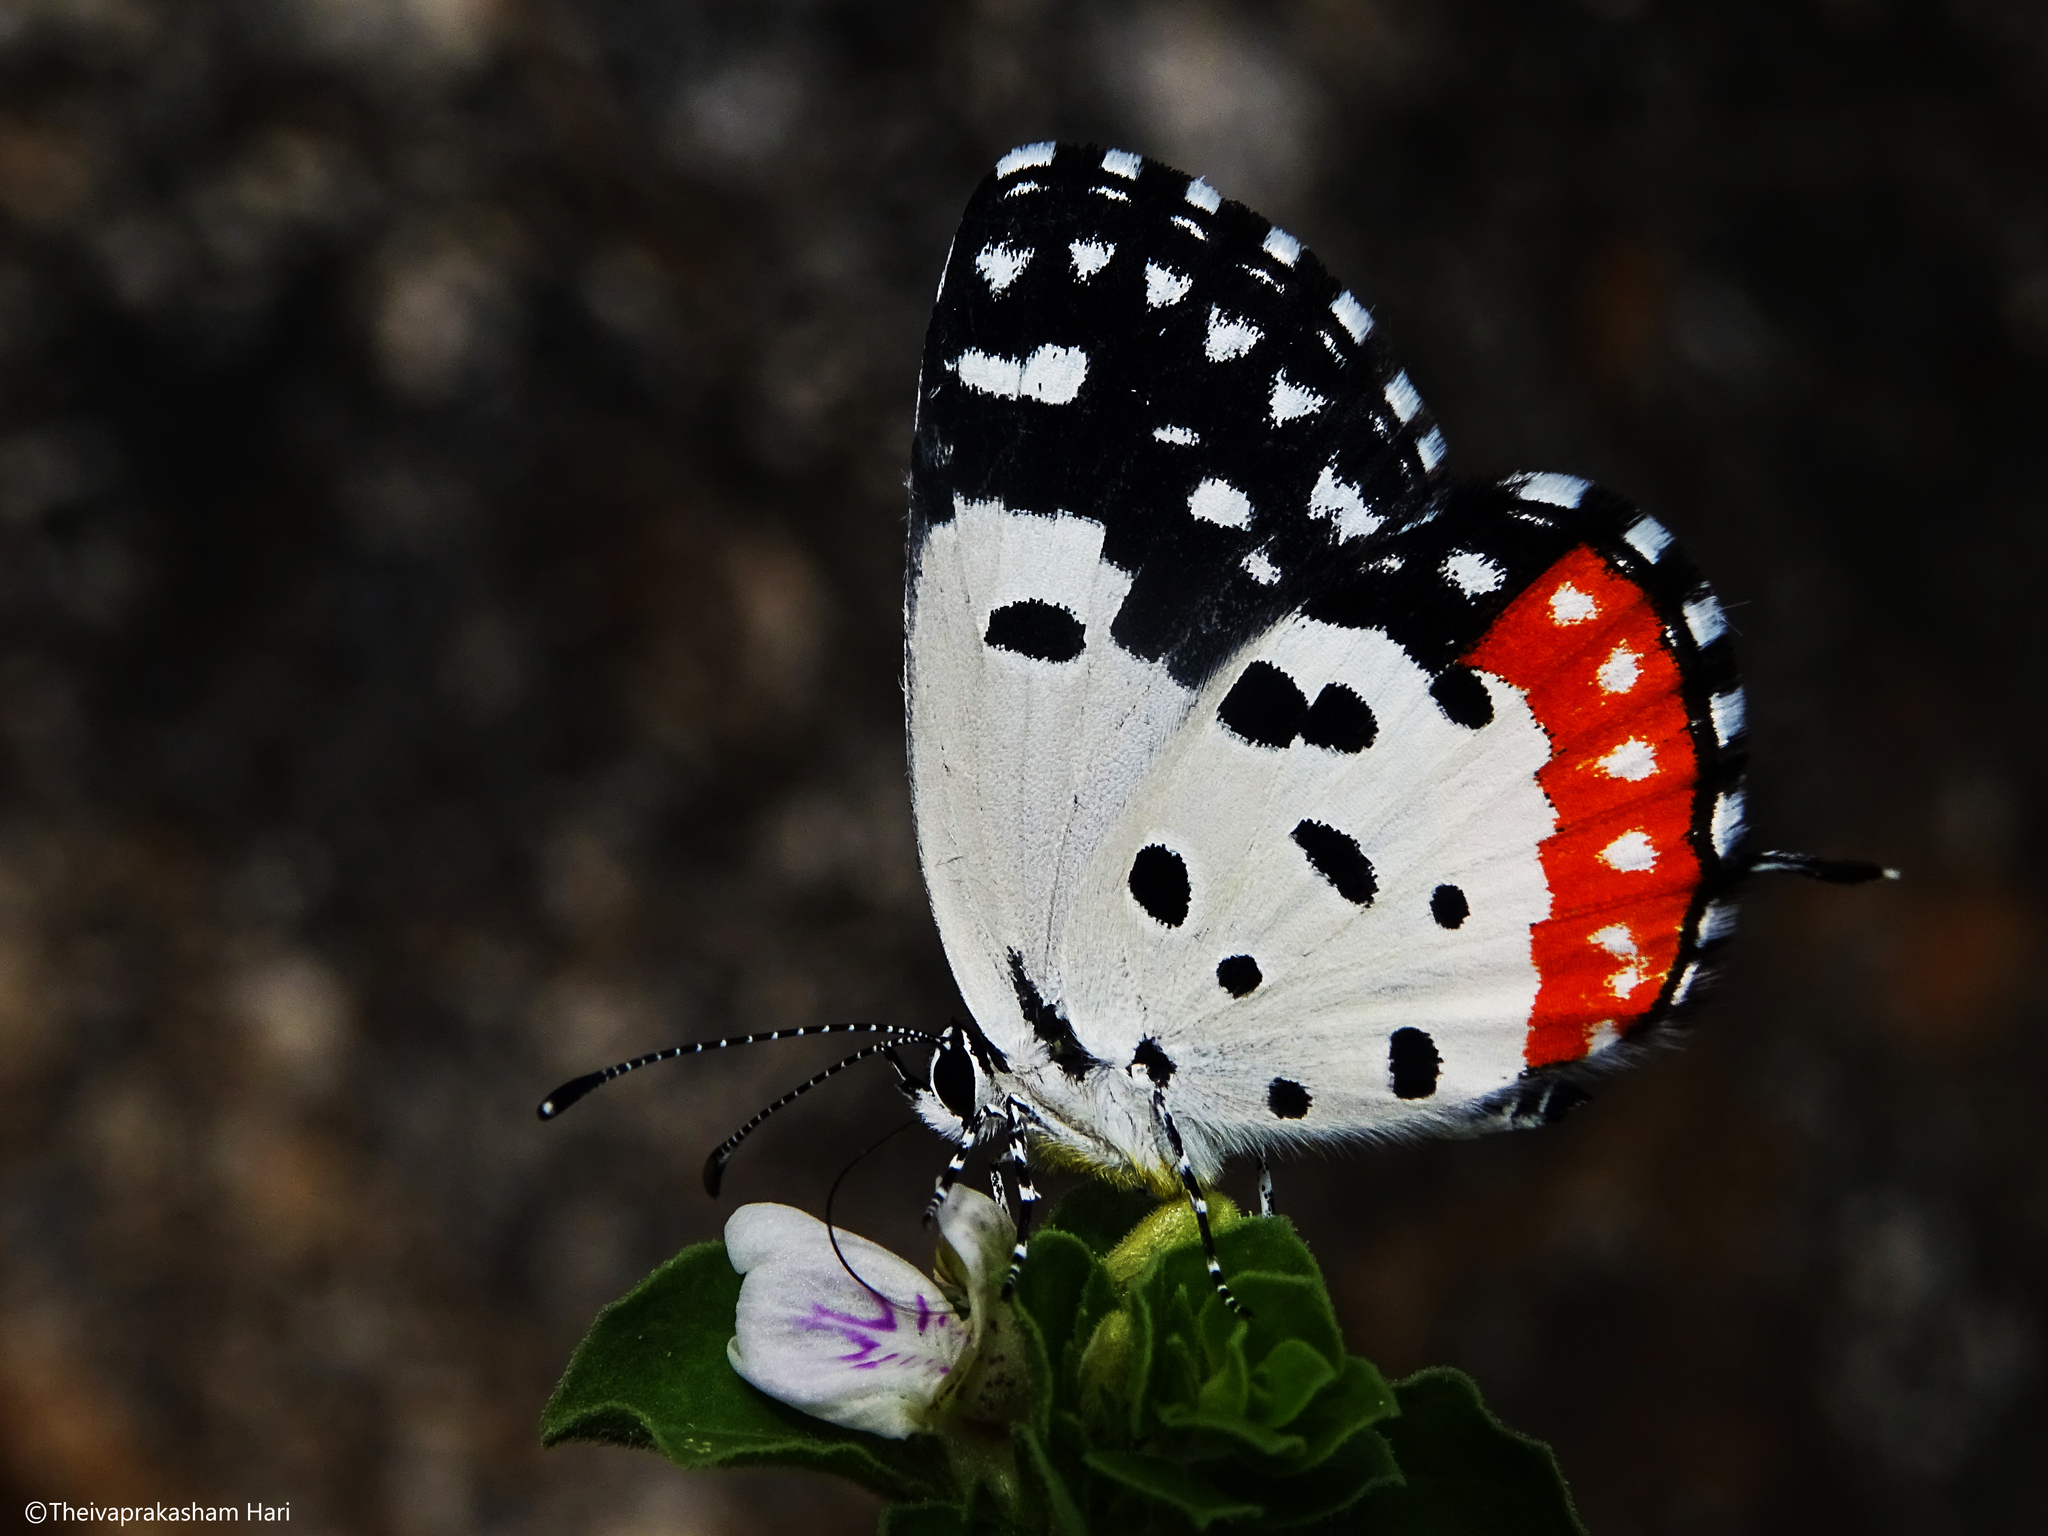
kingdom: Animalia
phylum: Arthropoda
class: Insecta
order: Lepidoptera
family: Lycaenidae
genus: Talicada
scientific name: Talicada nyseus
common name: Red pierrot
